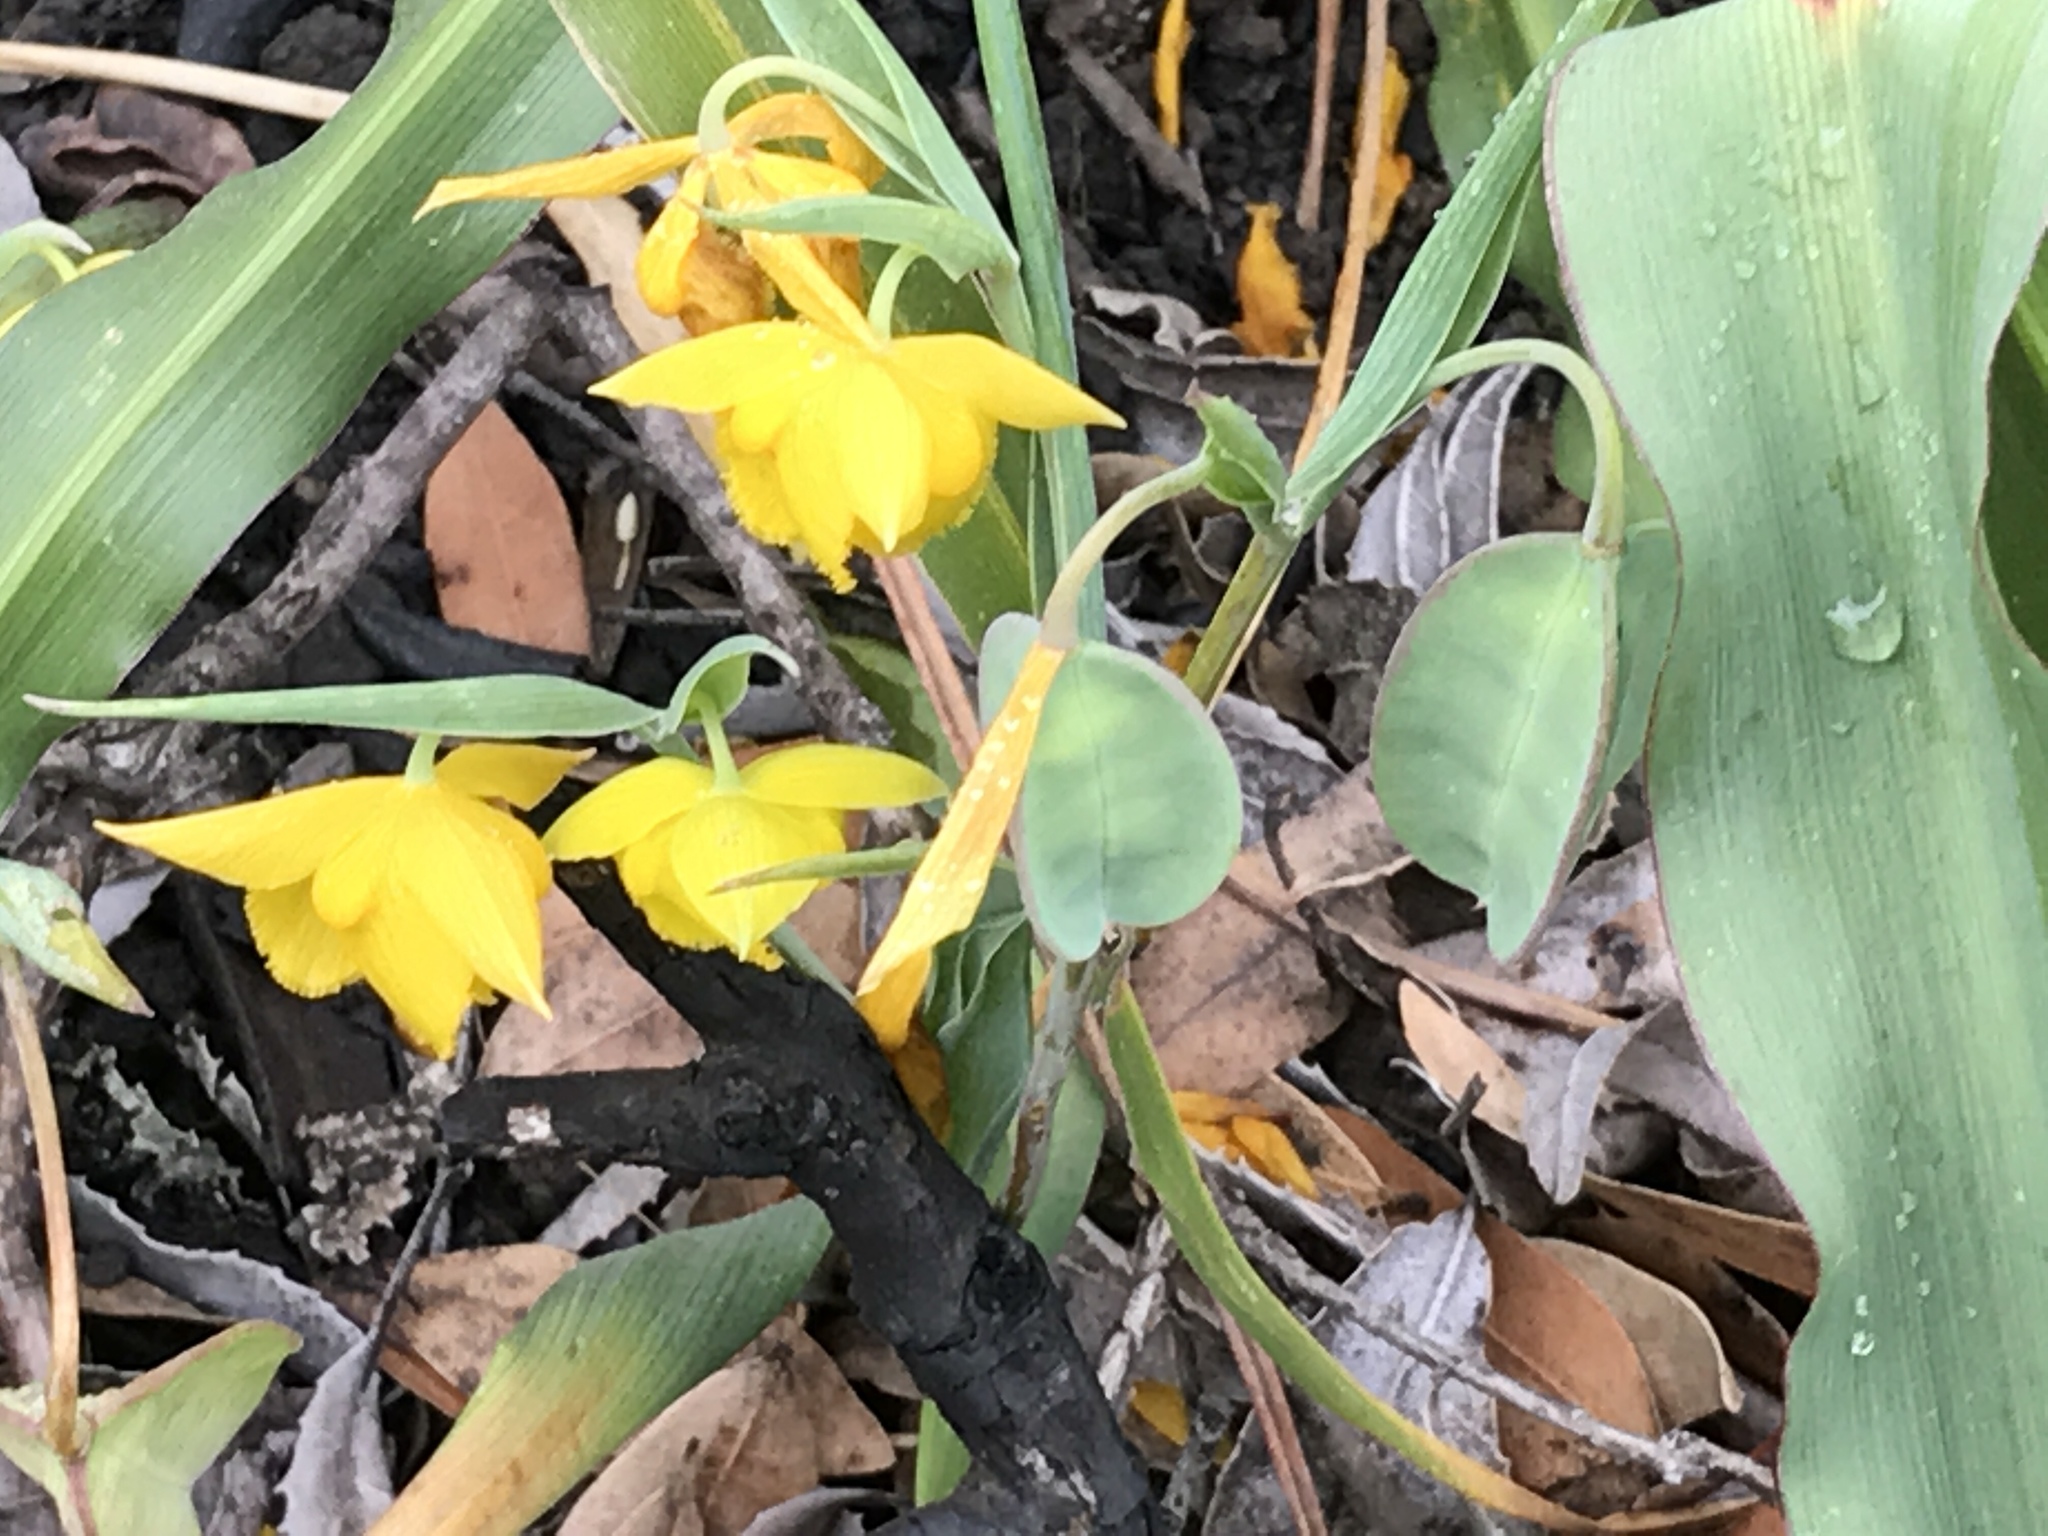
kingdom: Plantae
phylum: Tracheophyta
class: Liliopsida
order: Liliales
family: Liliaceae
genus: Calochortus
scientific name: Calochortus amabilis
